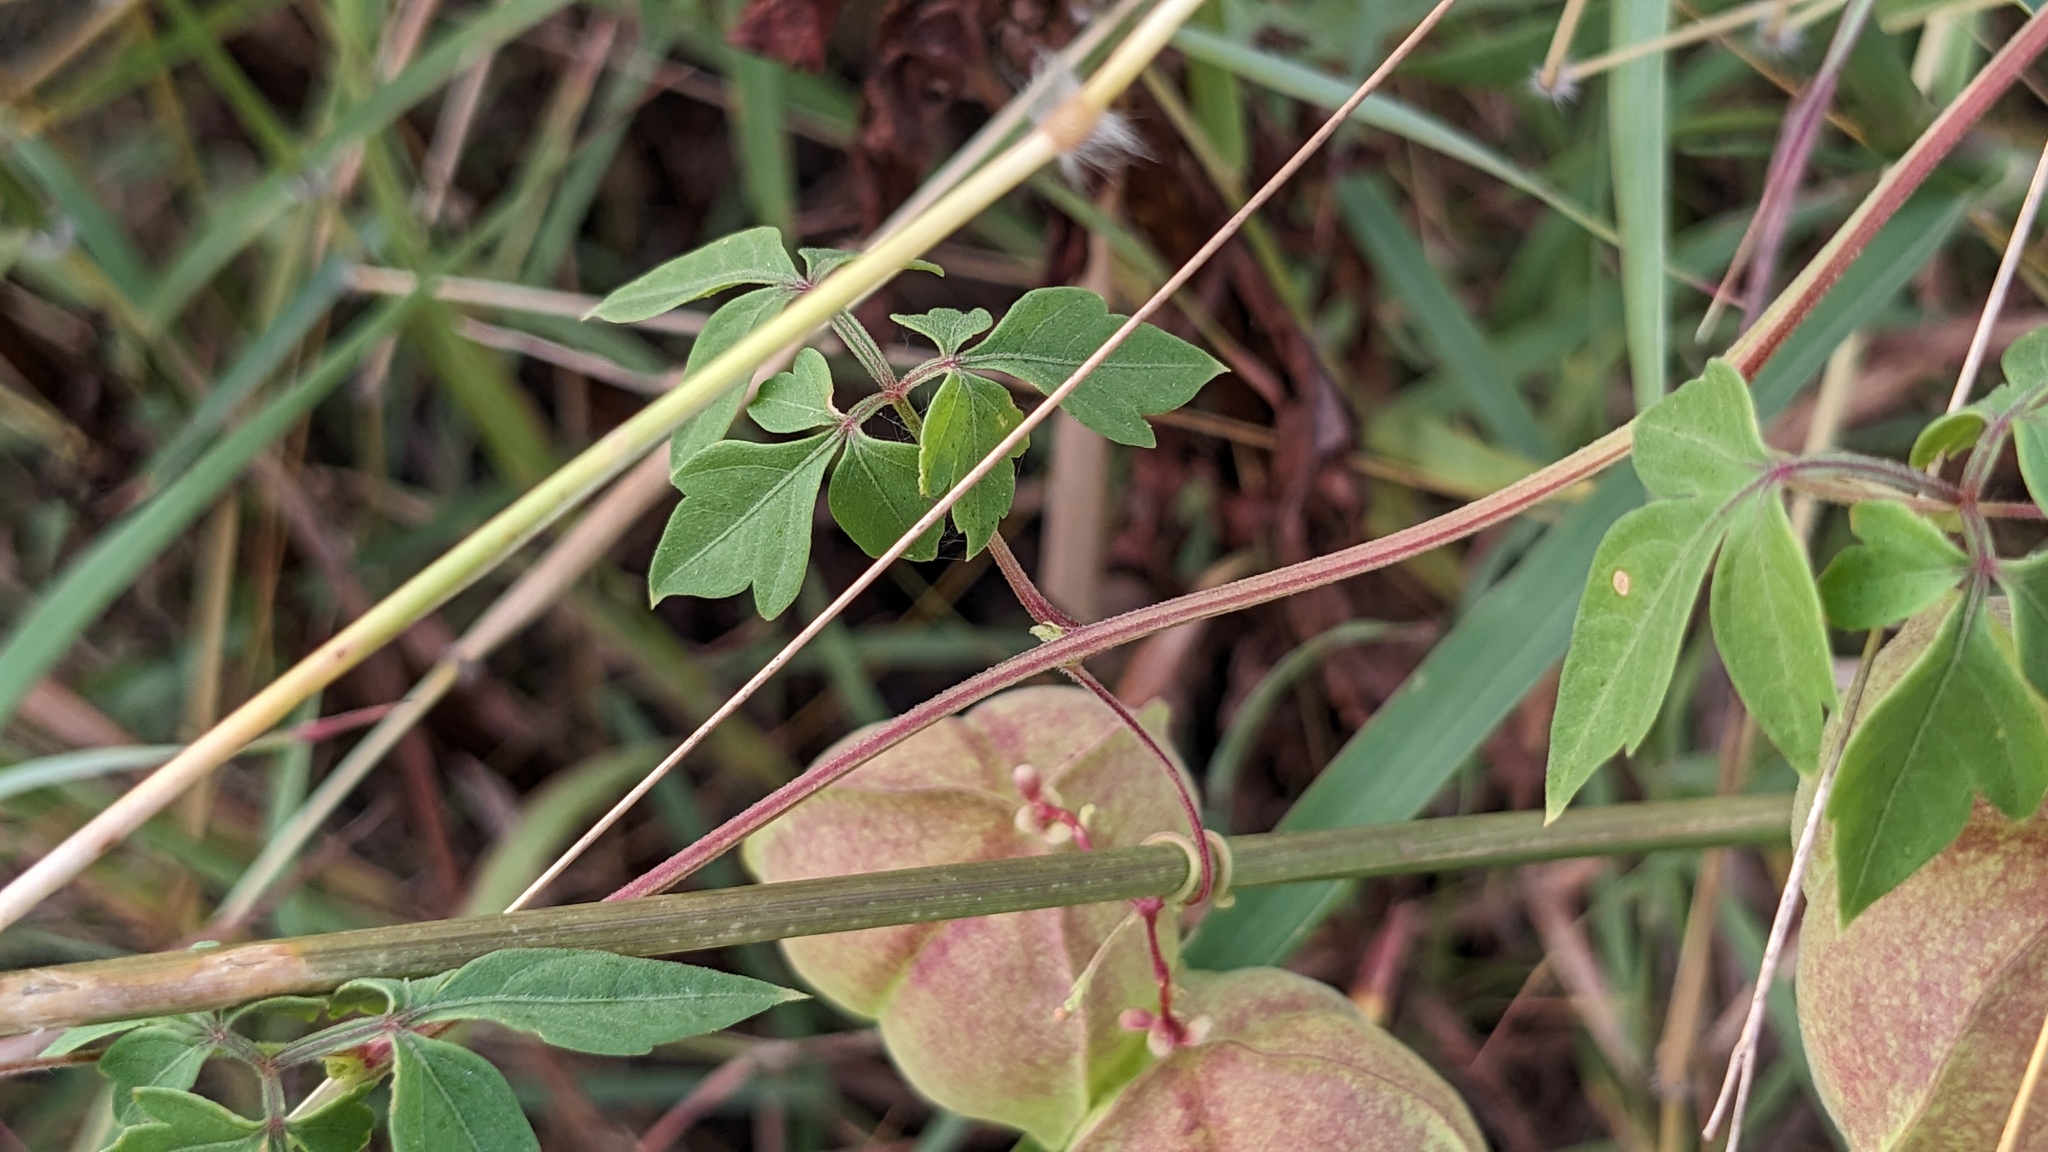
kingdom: Plantae
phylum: Tracheophyta
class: Magnoliopsida
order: Sapindales
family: Sapindaceae
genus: Cardiospermum
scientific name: Cardiospermum halicacabum
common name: Balloon vine
